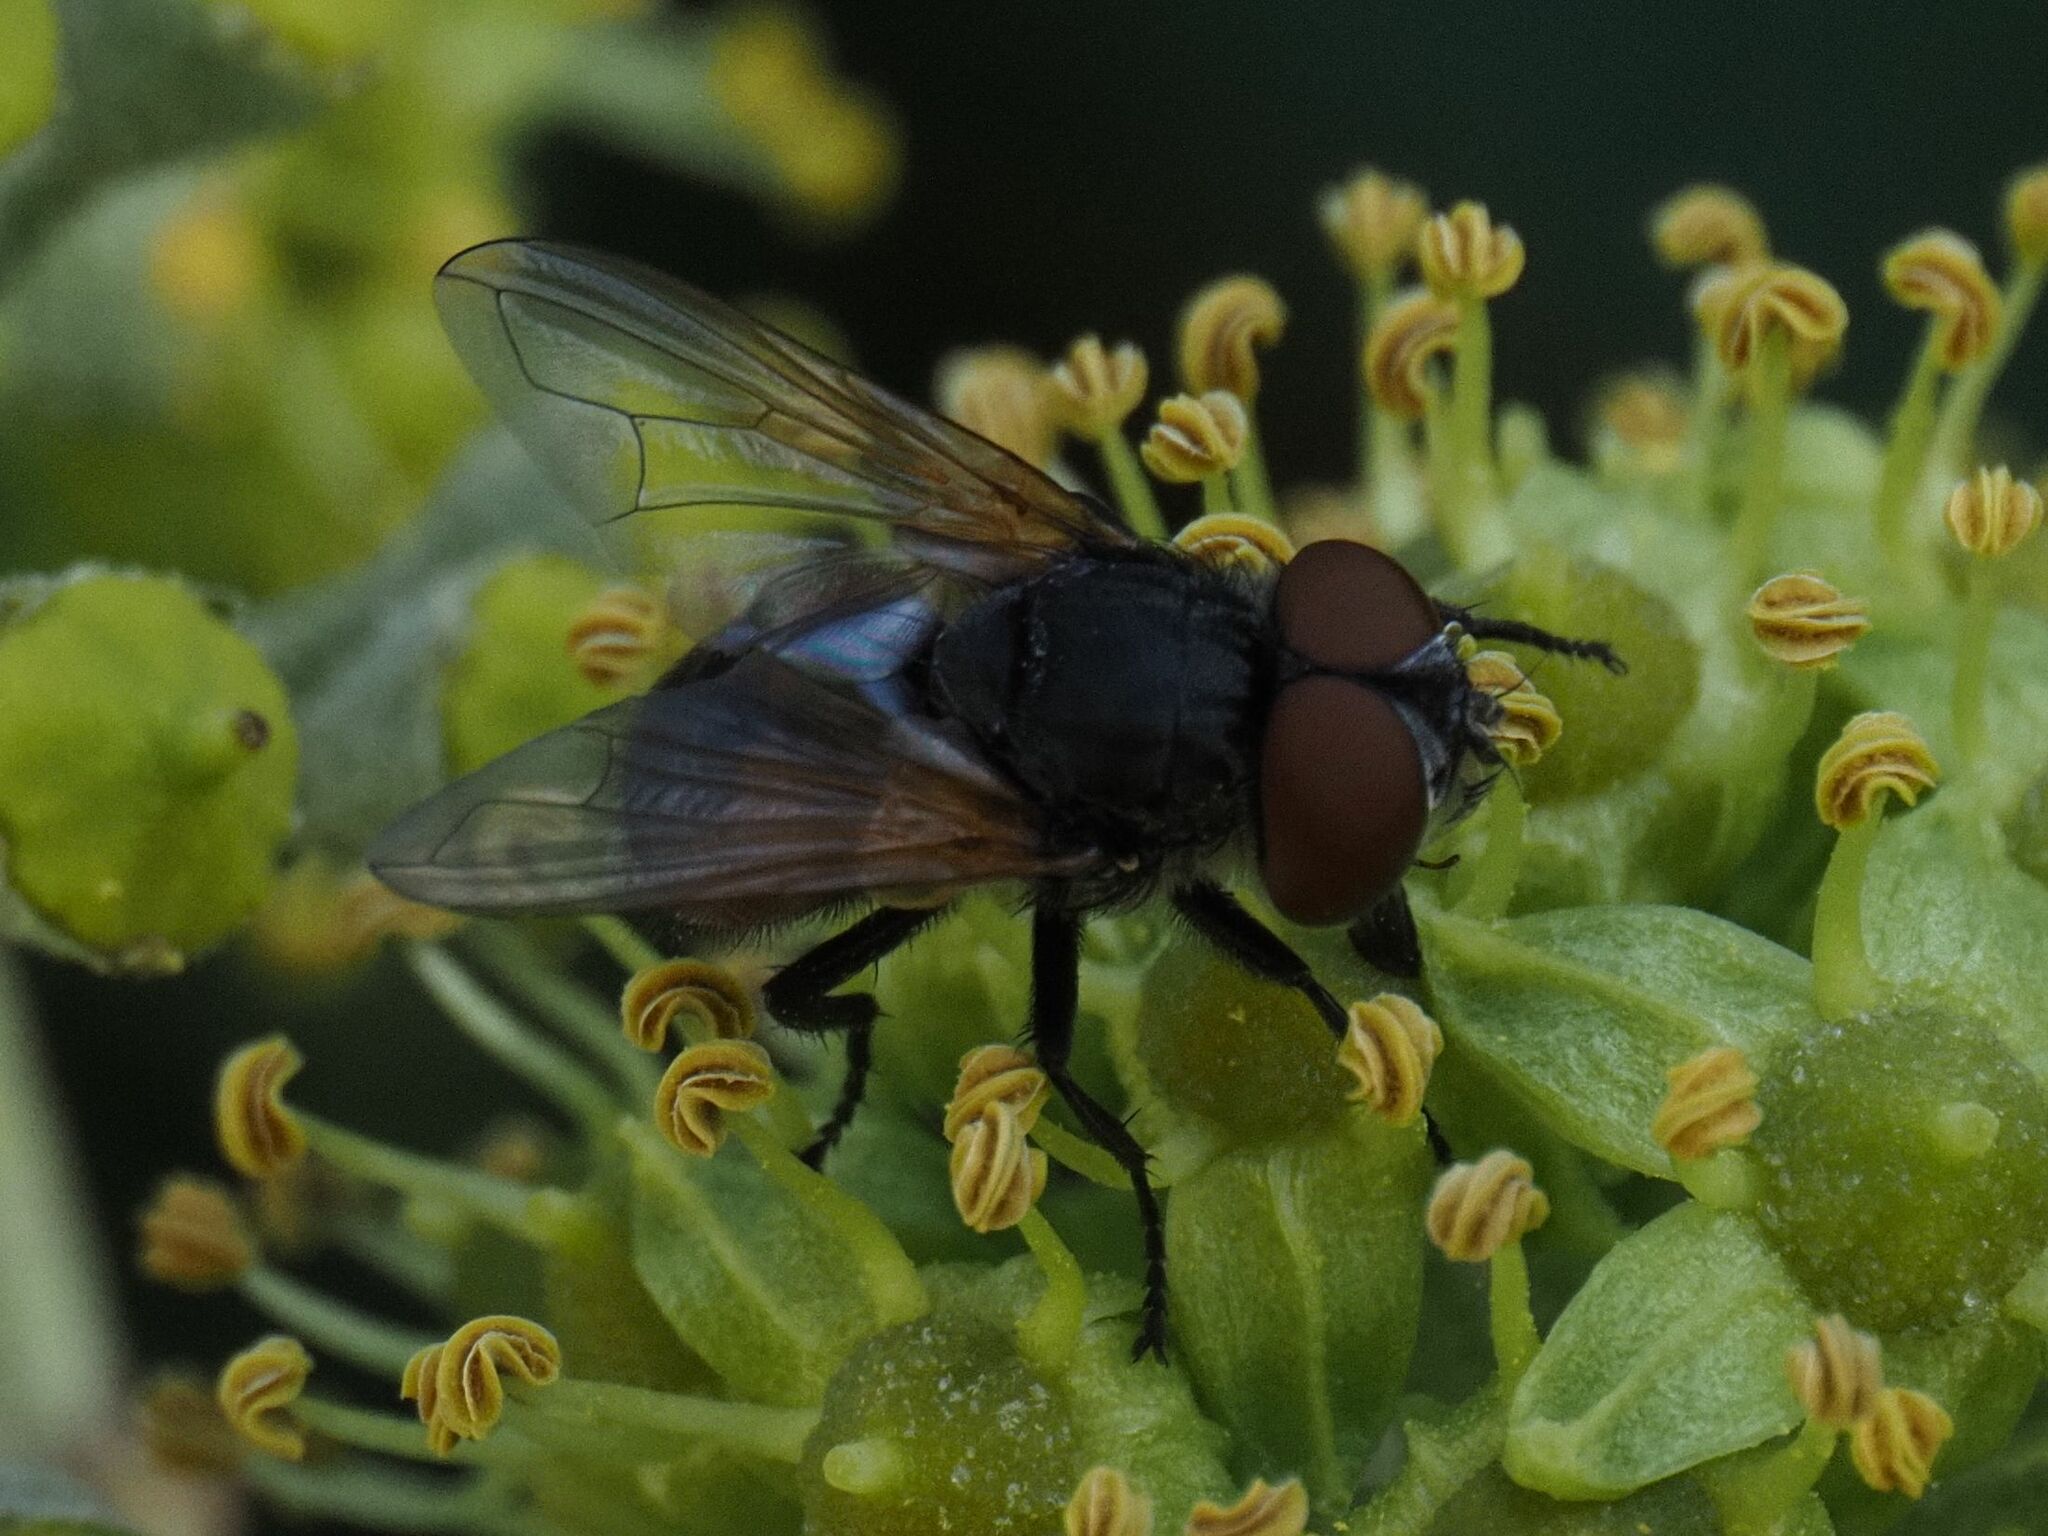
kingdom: Animalia
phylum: Arthropoda
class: Insecta
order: Diptera
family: Tachinidae
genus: Phasia
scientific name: Phasia aurigera
